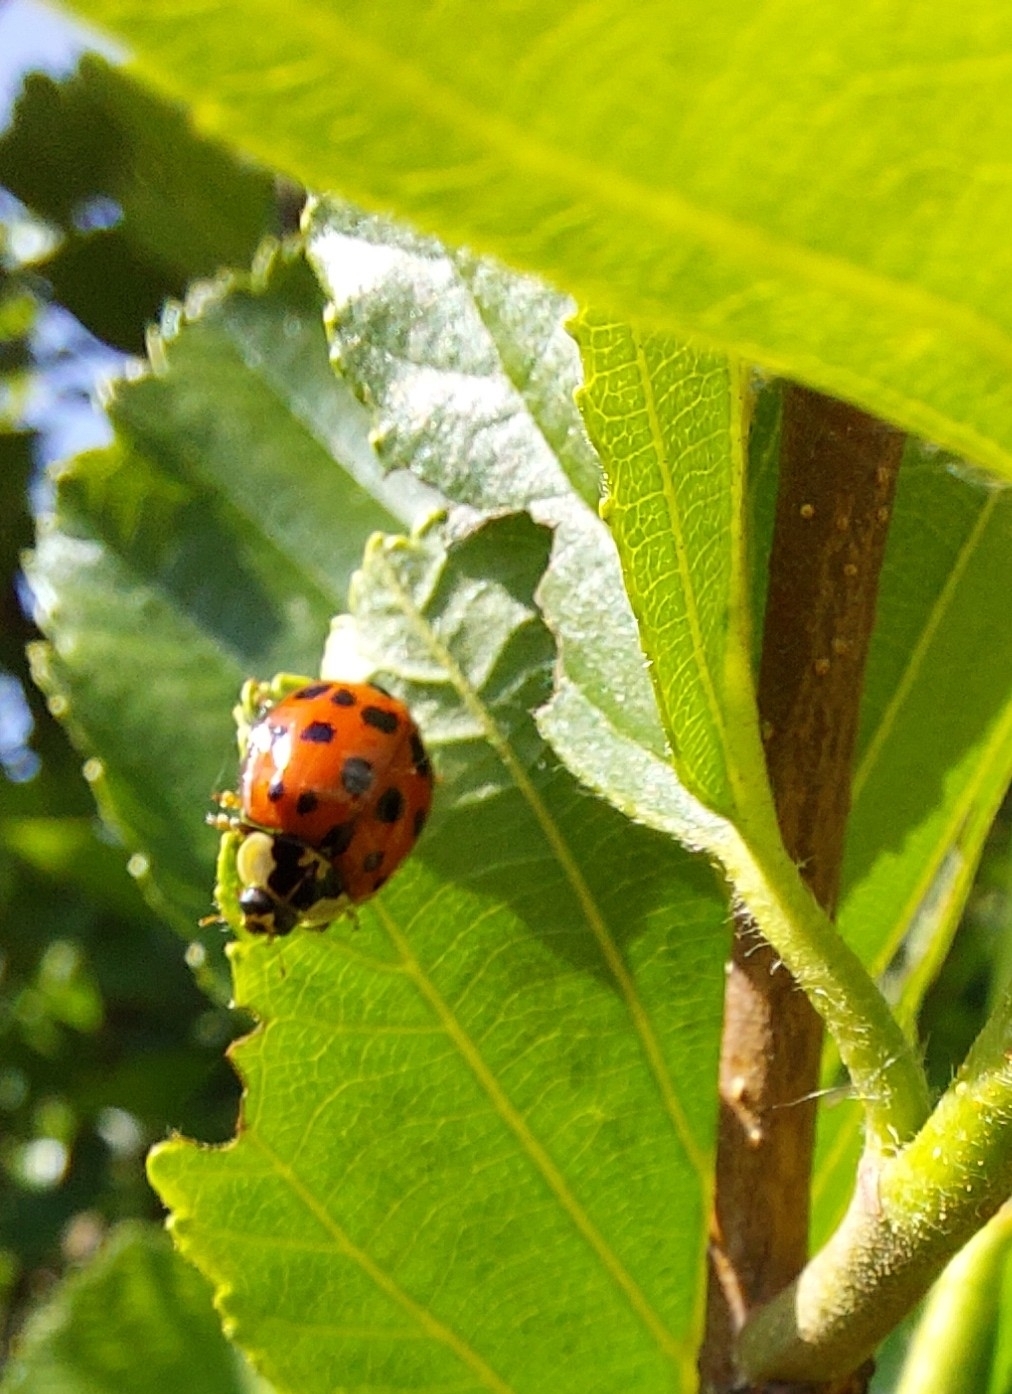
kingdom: Animalia
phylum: Arthropoda
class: Insecta
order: Coleoptera
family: Coccinellidae
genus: Harmonia
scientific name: Harmonia axyridis
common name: Harlequin ladybird
